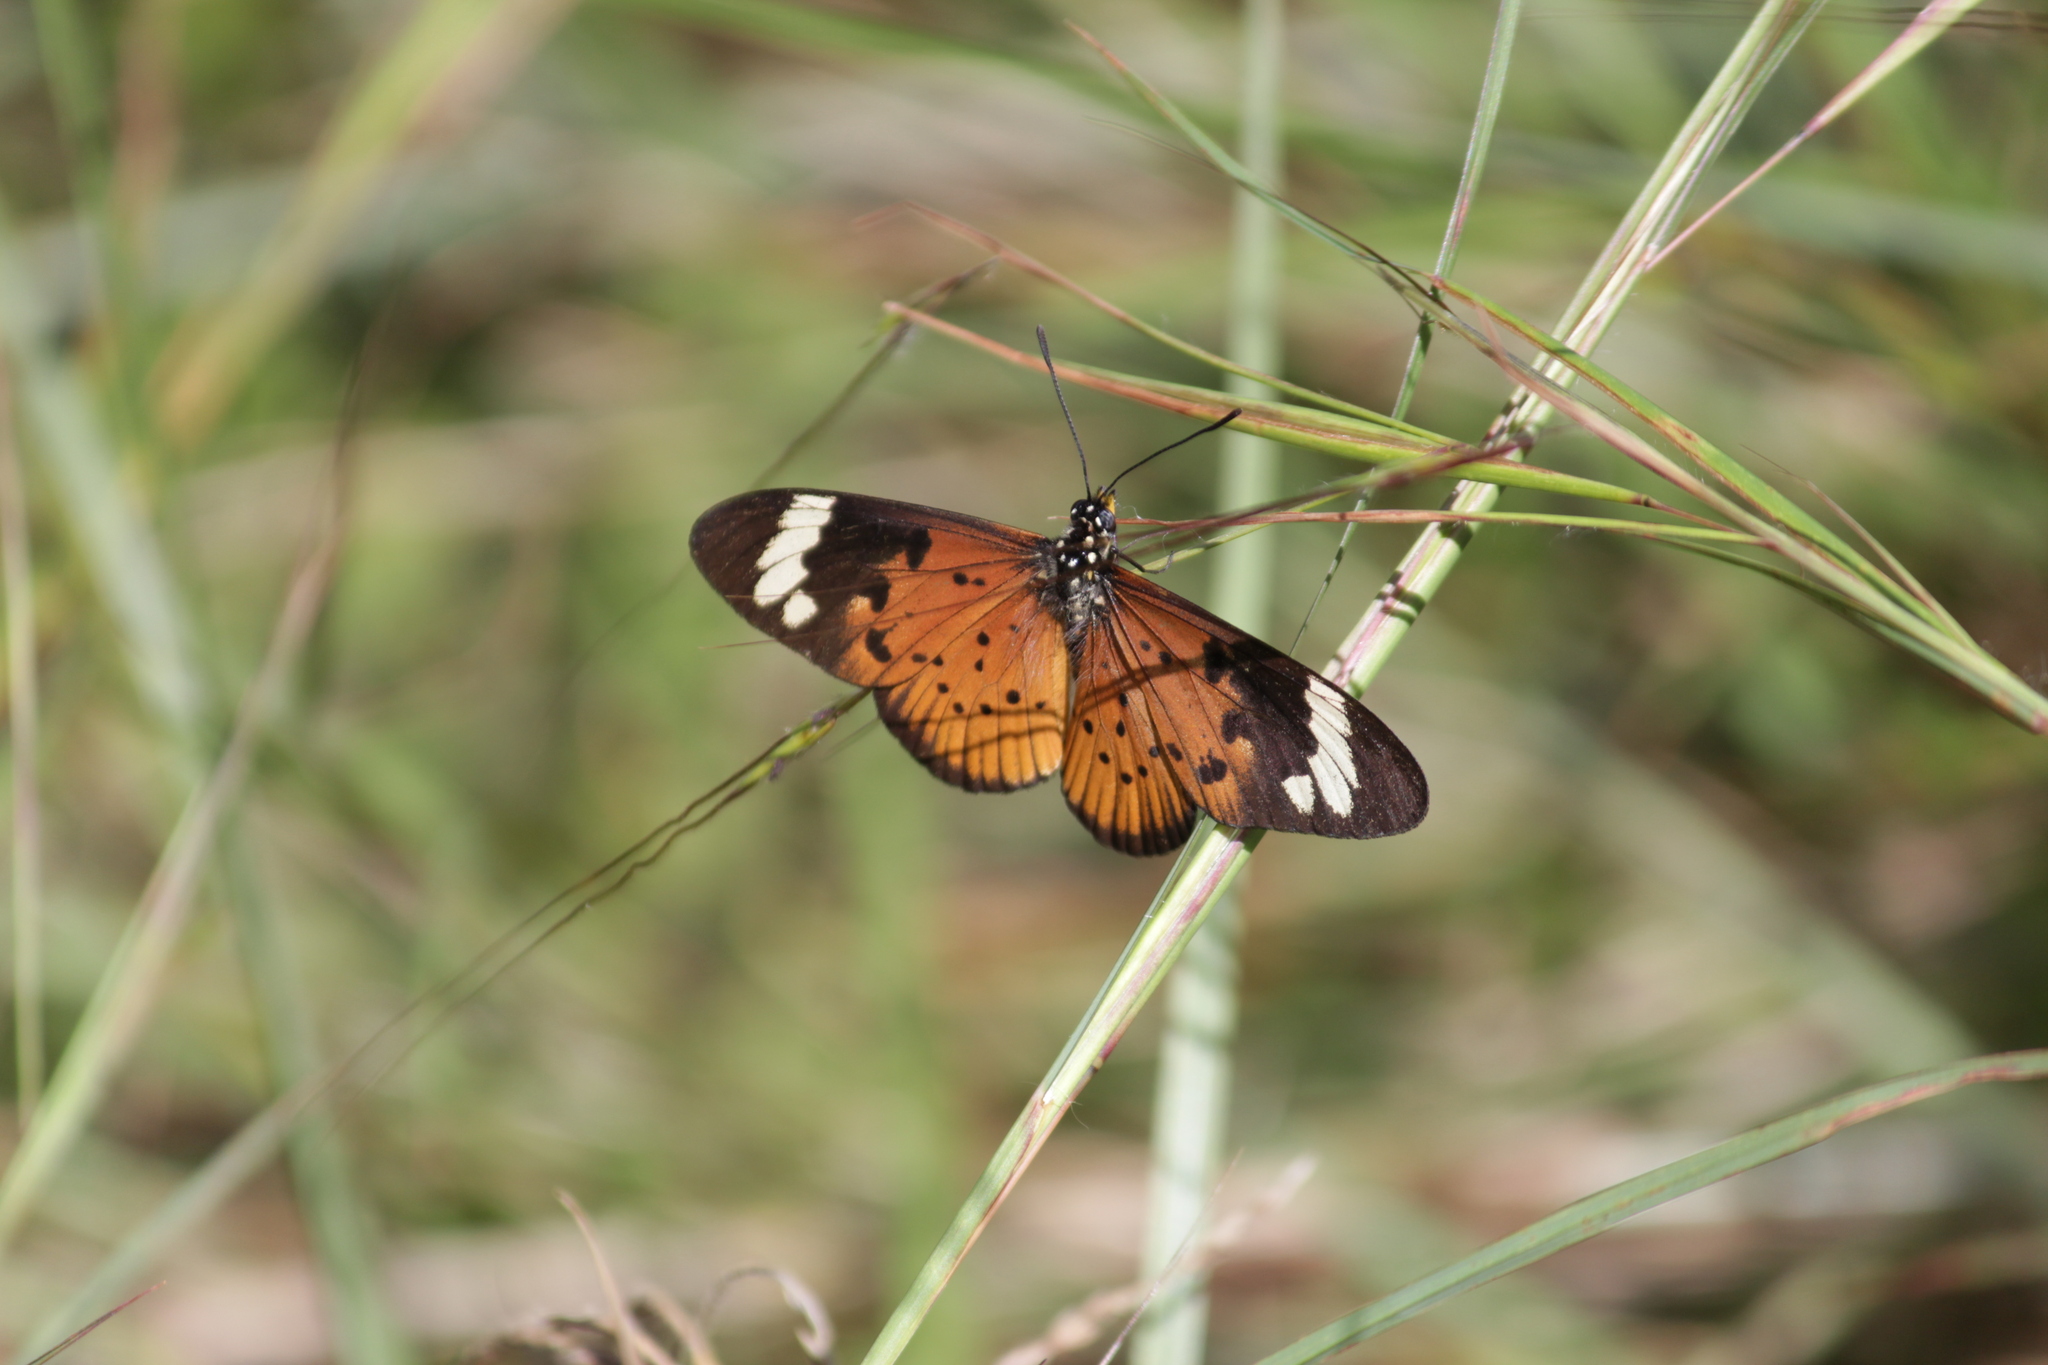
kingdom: Animalia
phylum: Arthropoda
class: Insecta
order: Lepidoptera
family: Nymphalidae
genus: Acraea
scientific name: Acraea Telchinia encedon
